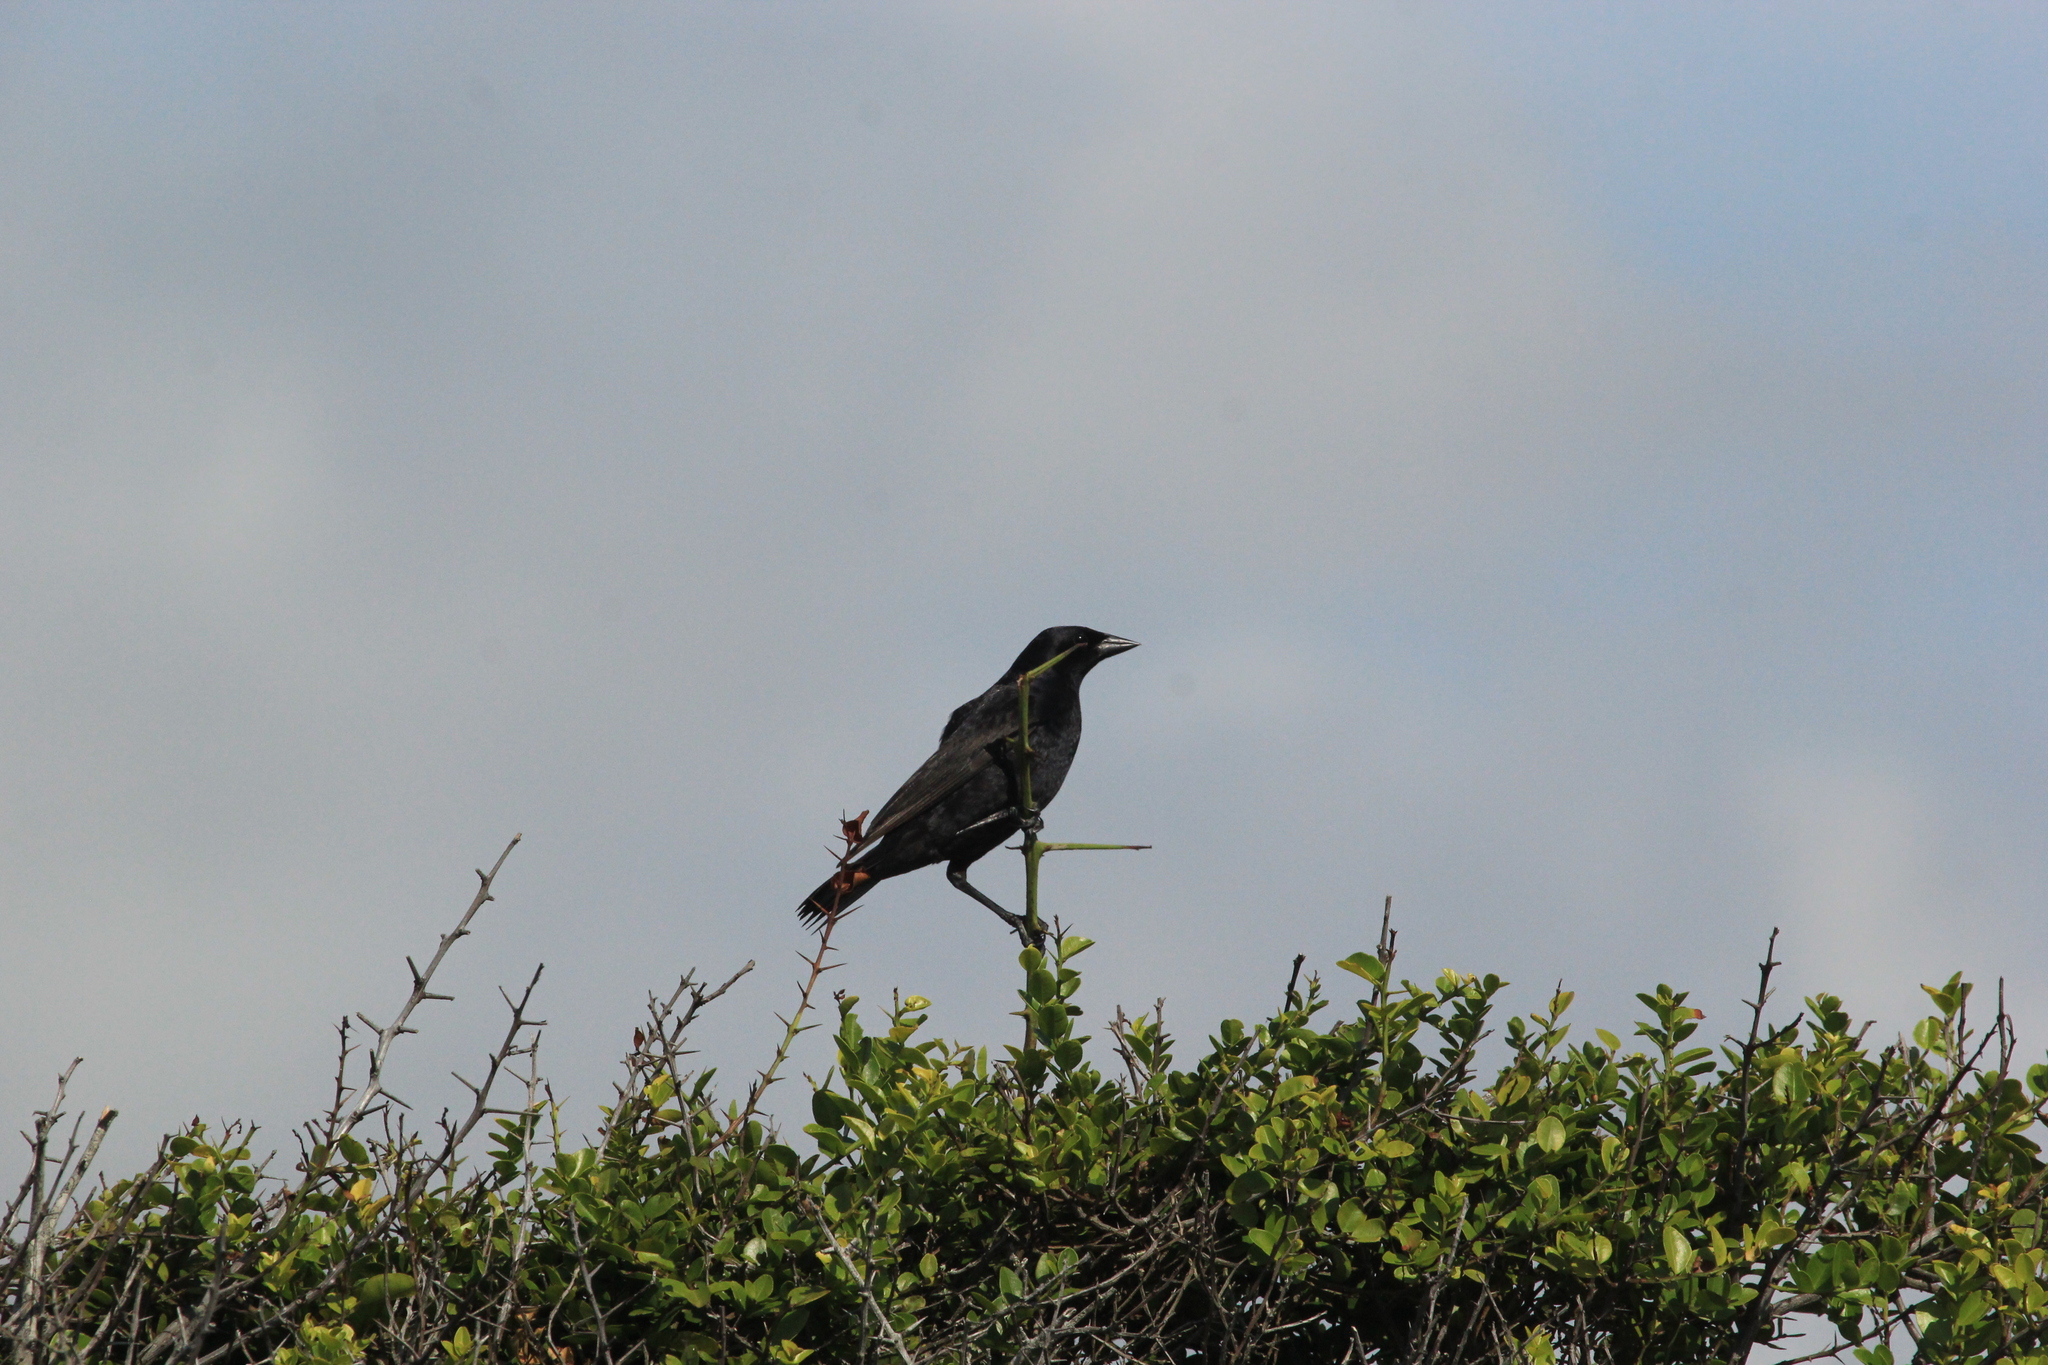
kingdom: Animalia
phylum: Chordata
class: Aves
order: Passeriformes
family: Icteridae
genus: Molothrus
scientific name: Molothrus bonariensis
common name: Shiny cowbird
